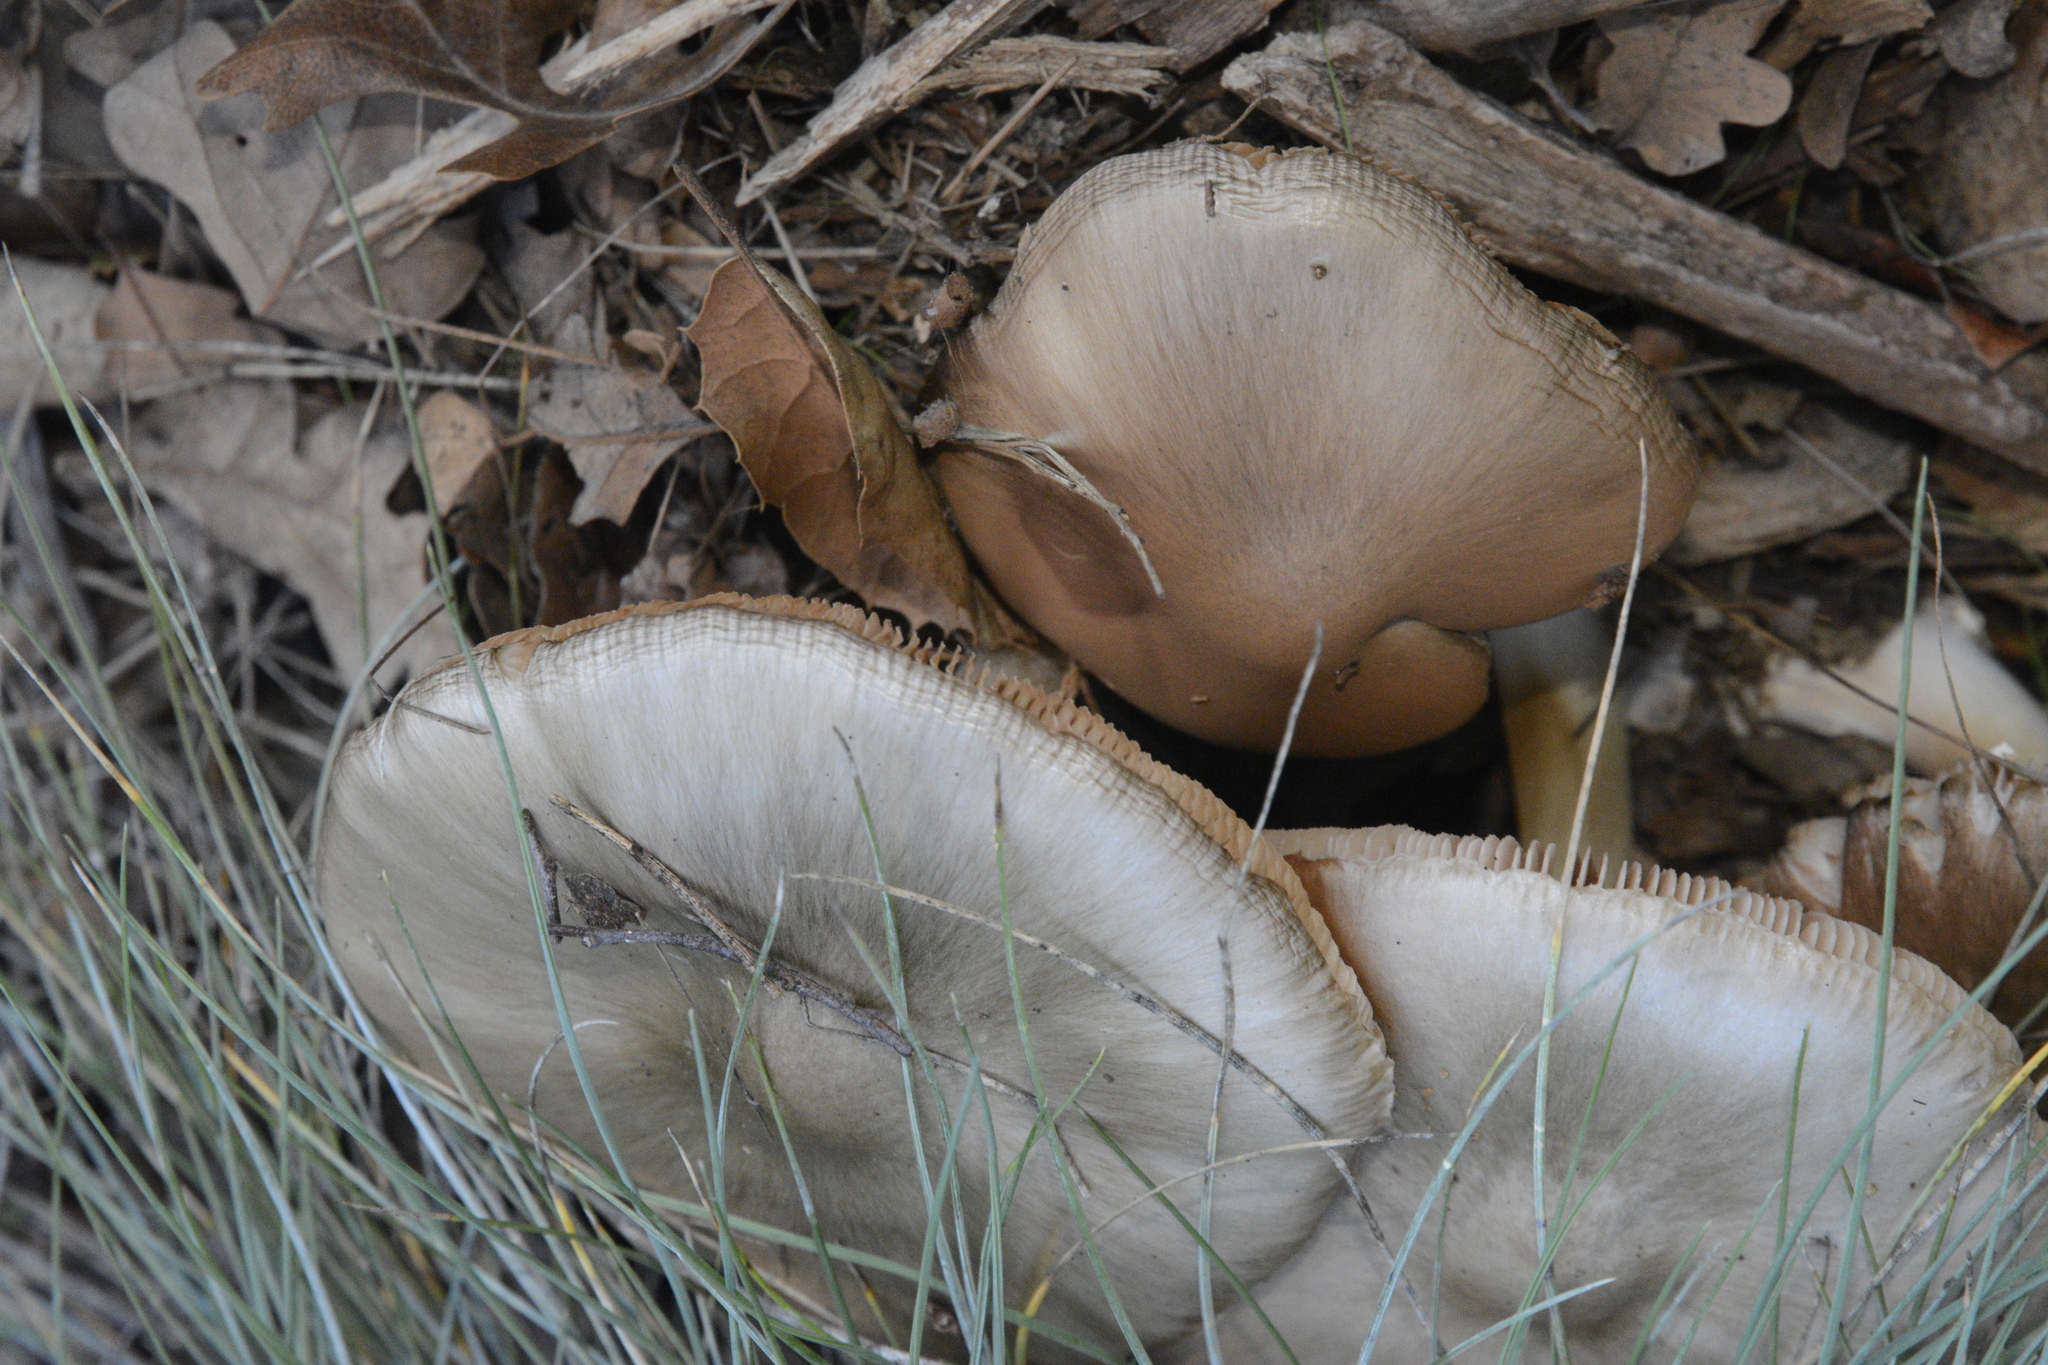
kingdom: Fungi
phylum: Basidiomycota
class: Agaricomycetes
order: Agaricales
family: Pluteaceae
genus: Volvopluteus
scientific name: Volvopluteus gloiocephalus
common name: Stubble rosegill
